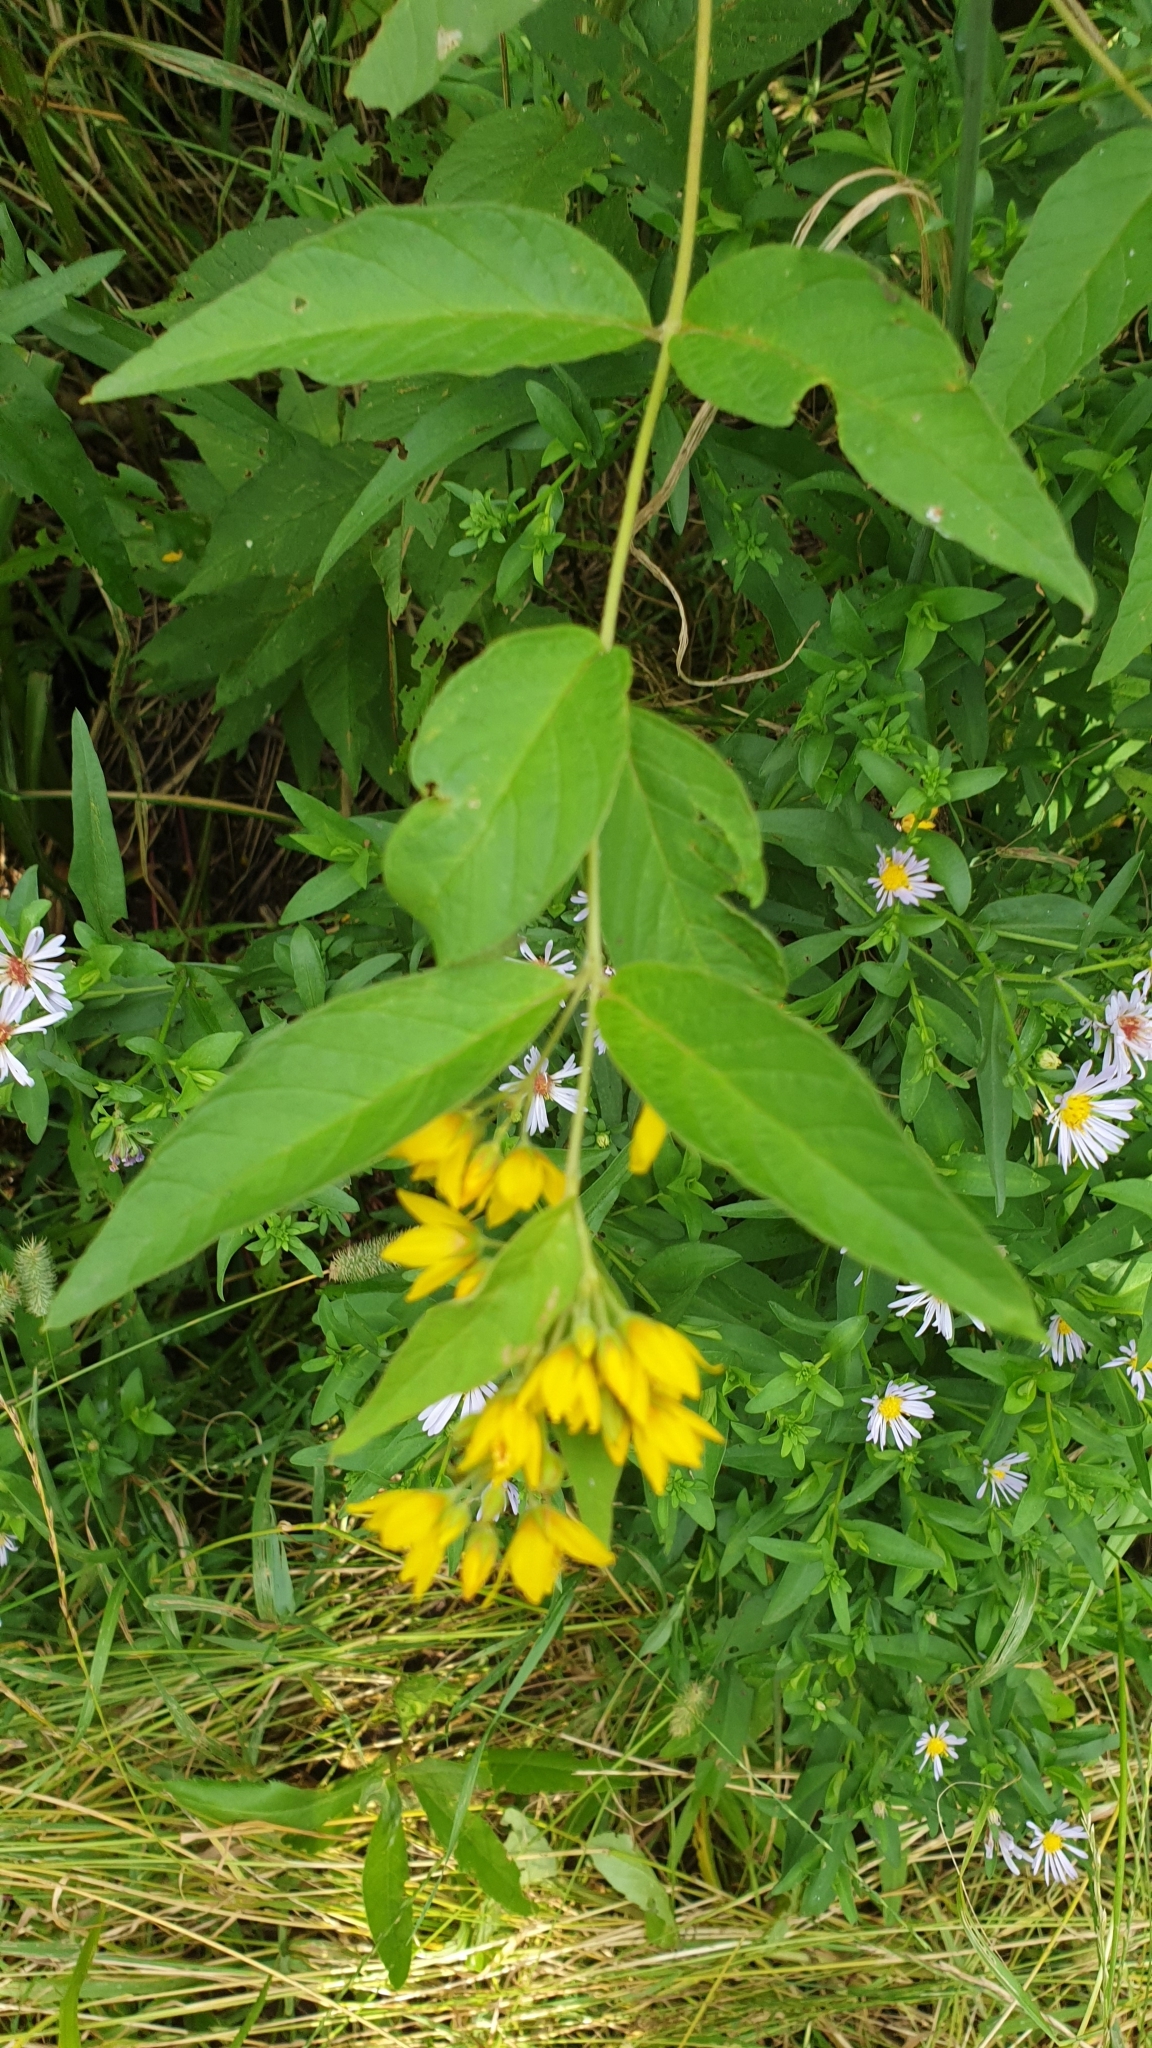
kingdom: Plantae
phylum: Tracheophyta
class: Magnoliopsida
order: Ericales
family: Primulaceae
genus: Lysimachia
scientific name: Lysimachia vulgaris
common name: Yellow loosestrife
